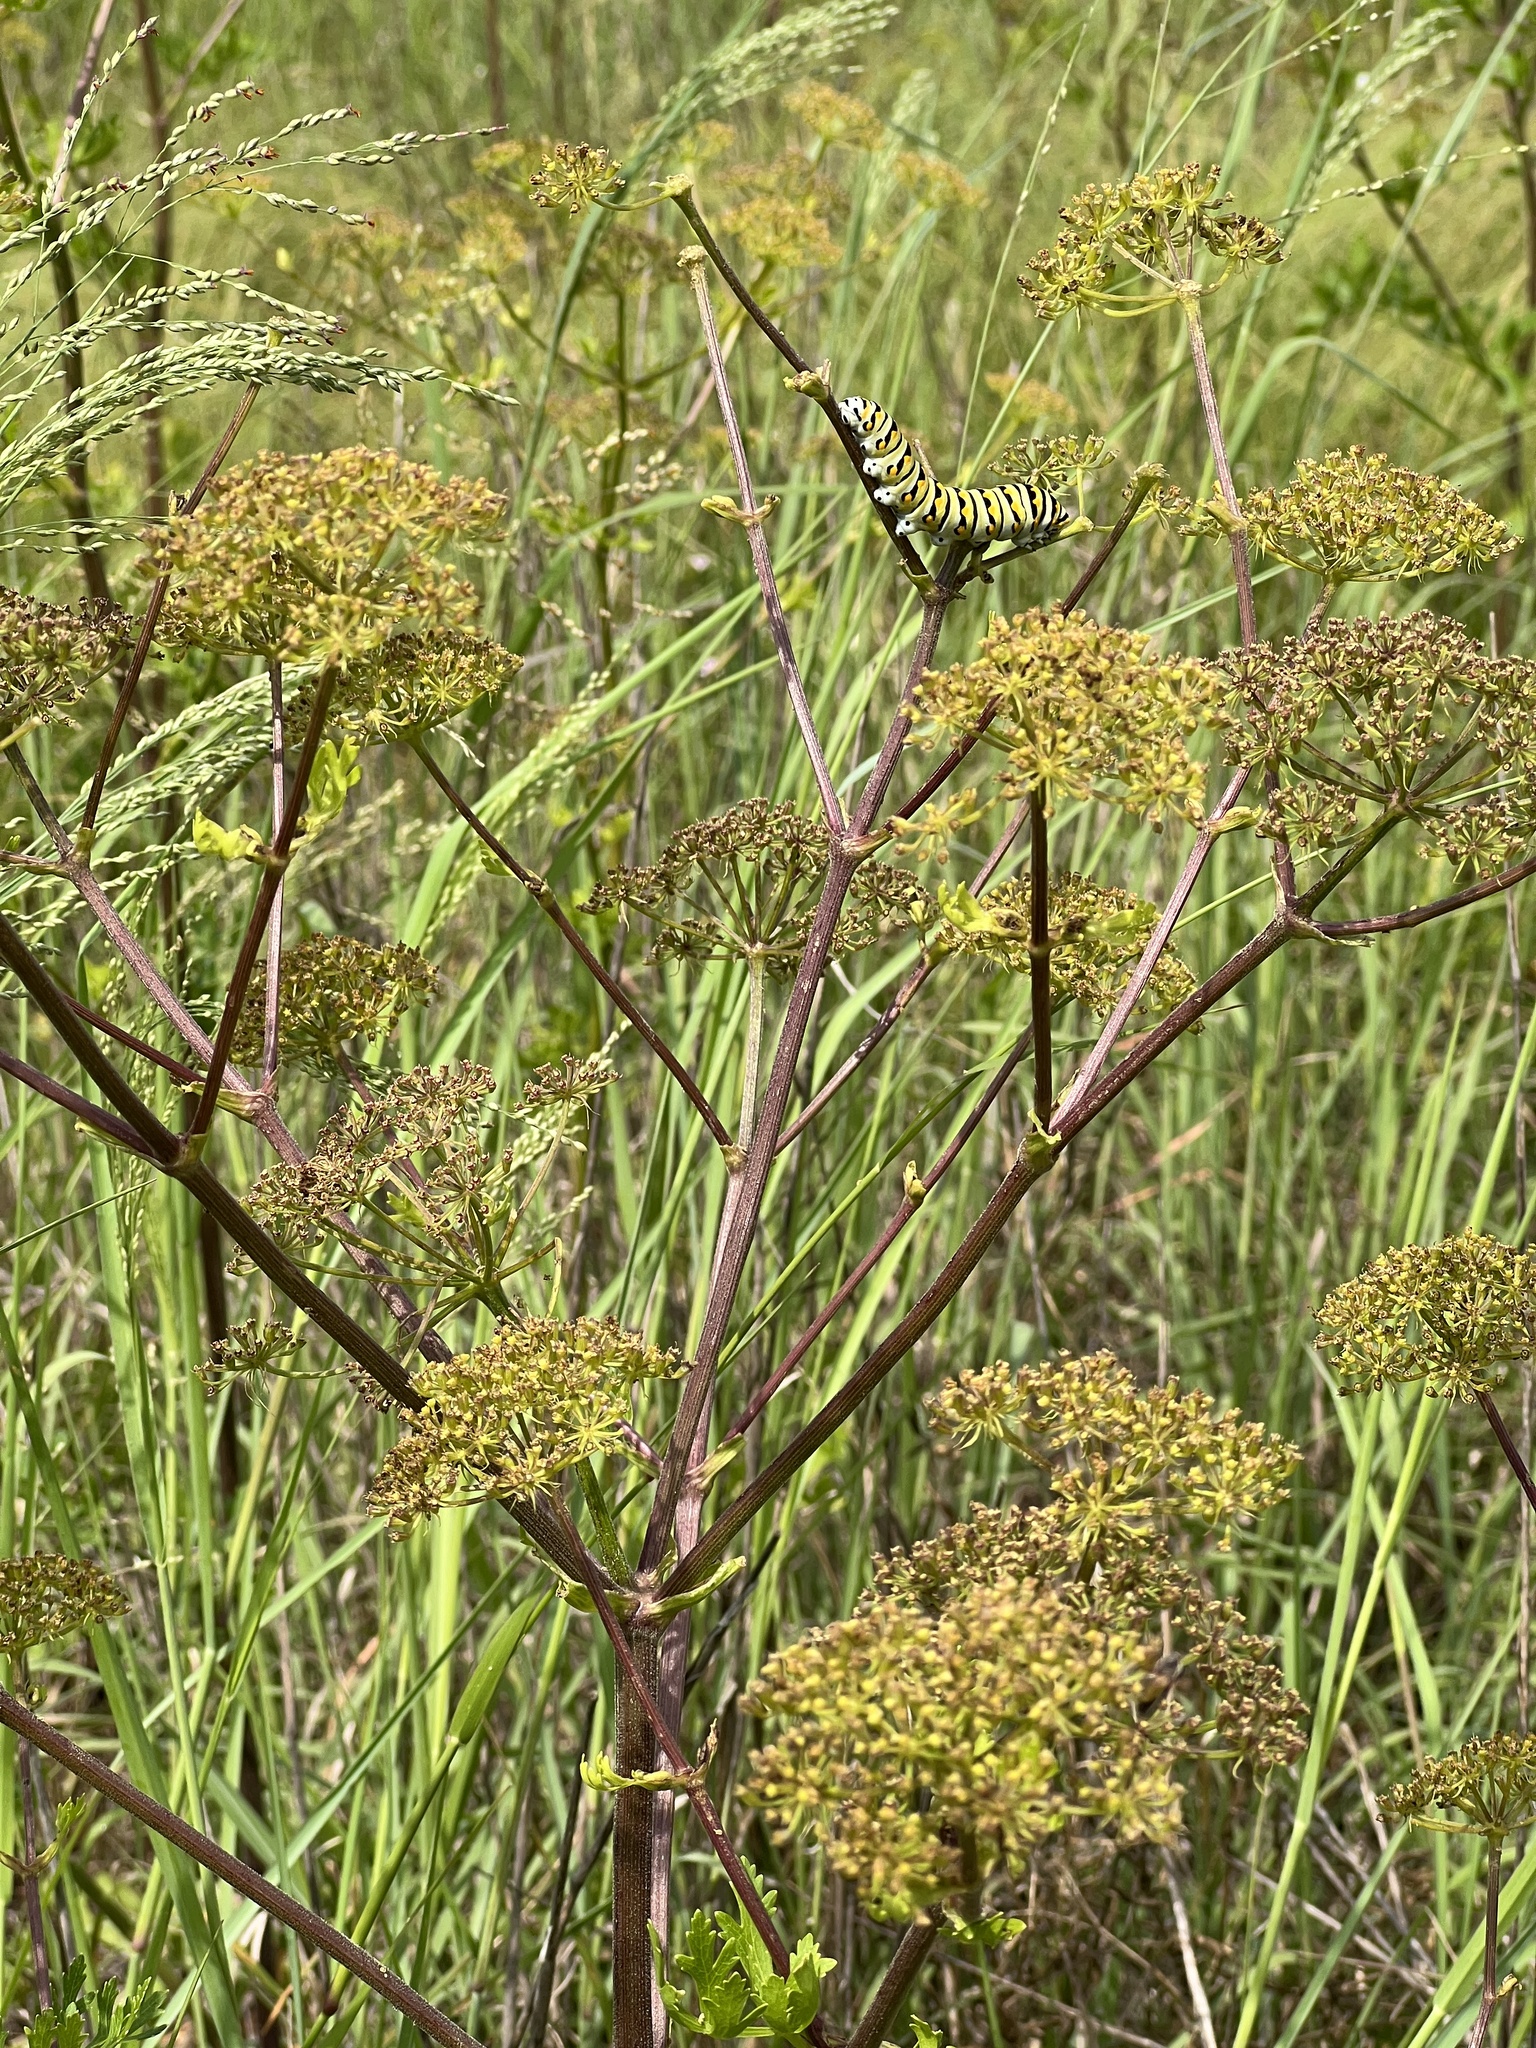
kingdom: Plantae
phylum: Tracheophyta
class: Magnoliopsida
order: Apiales
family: Apiaceae
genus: Polytaenia
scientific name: Polytaenia texana
